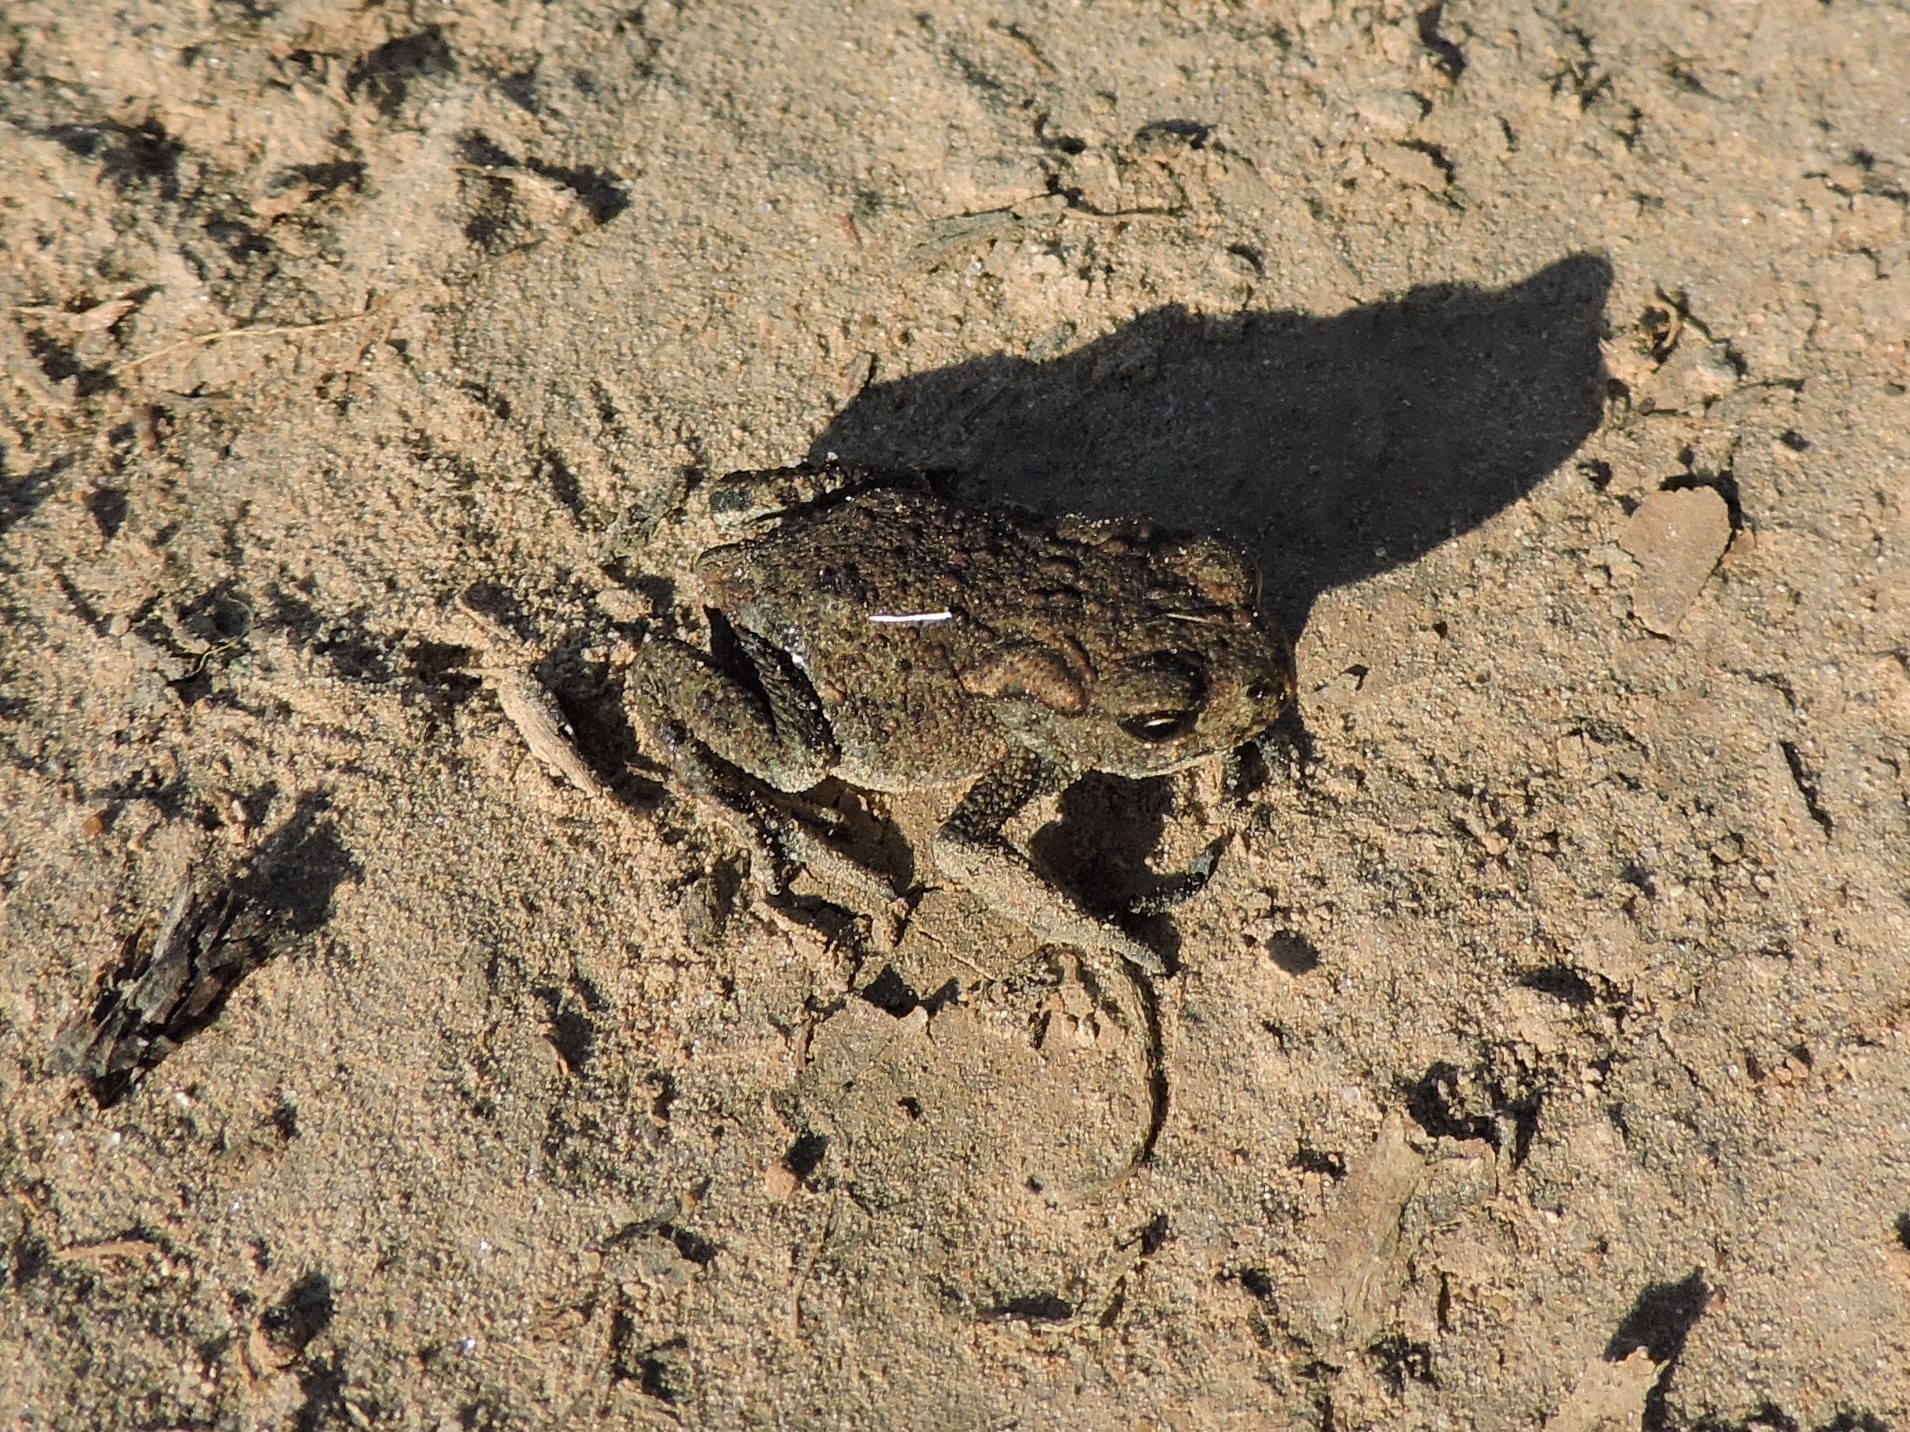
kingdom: Animalia
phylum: Chordata
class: Amphibia
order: Anura
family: Bufonidae
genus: Bufo
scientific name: Bufo bufo
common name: Common toad
